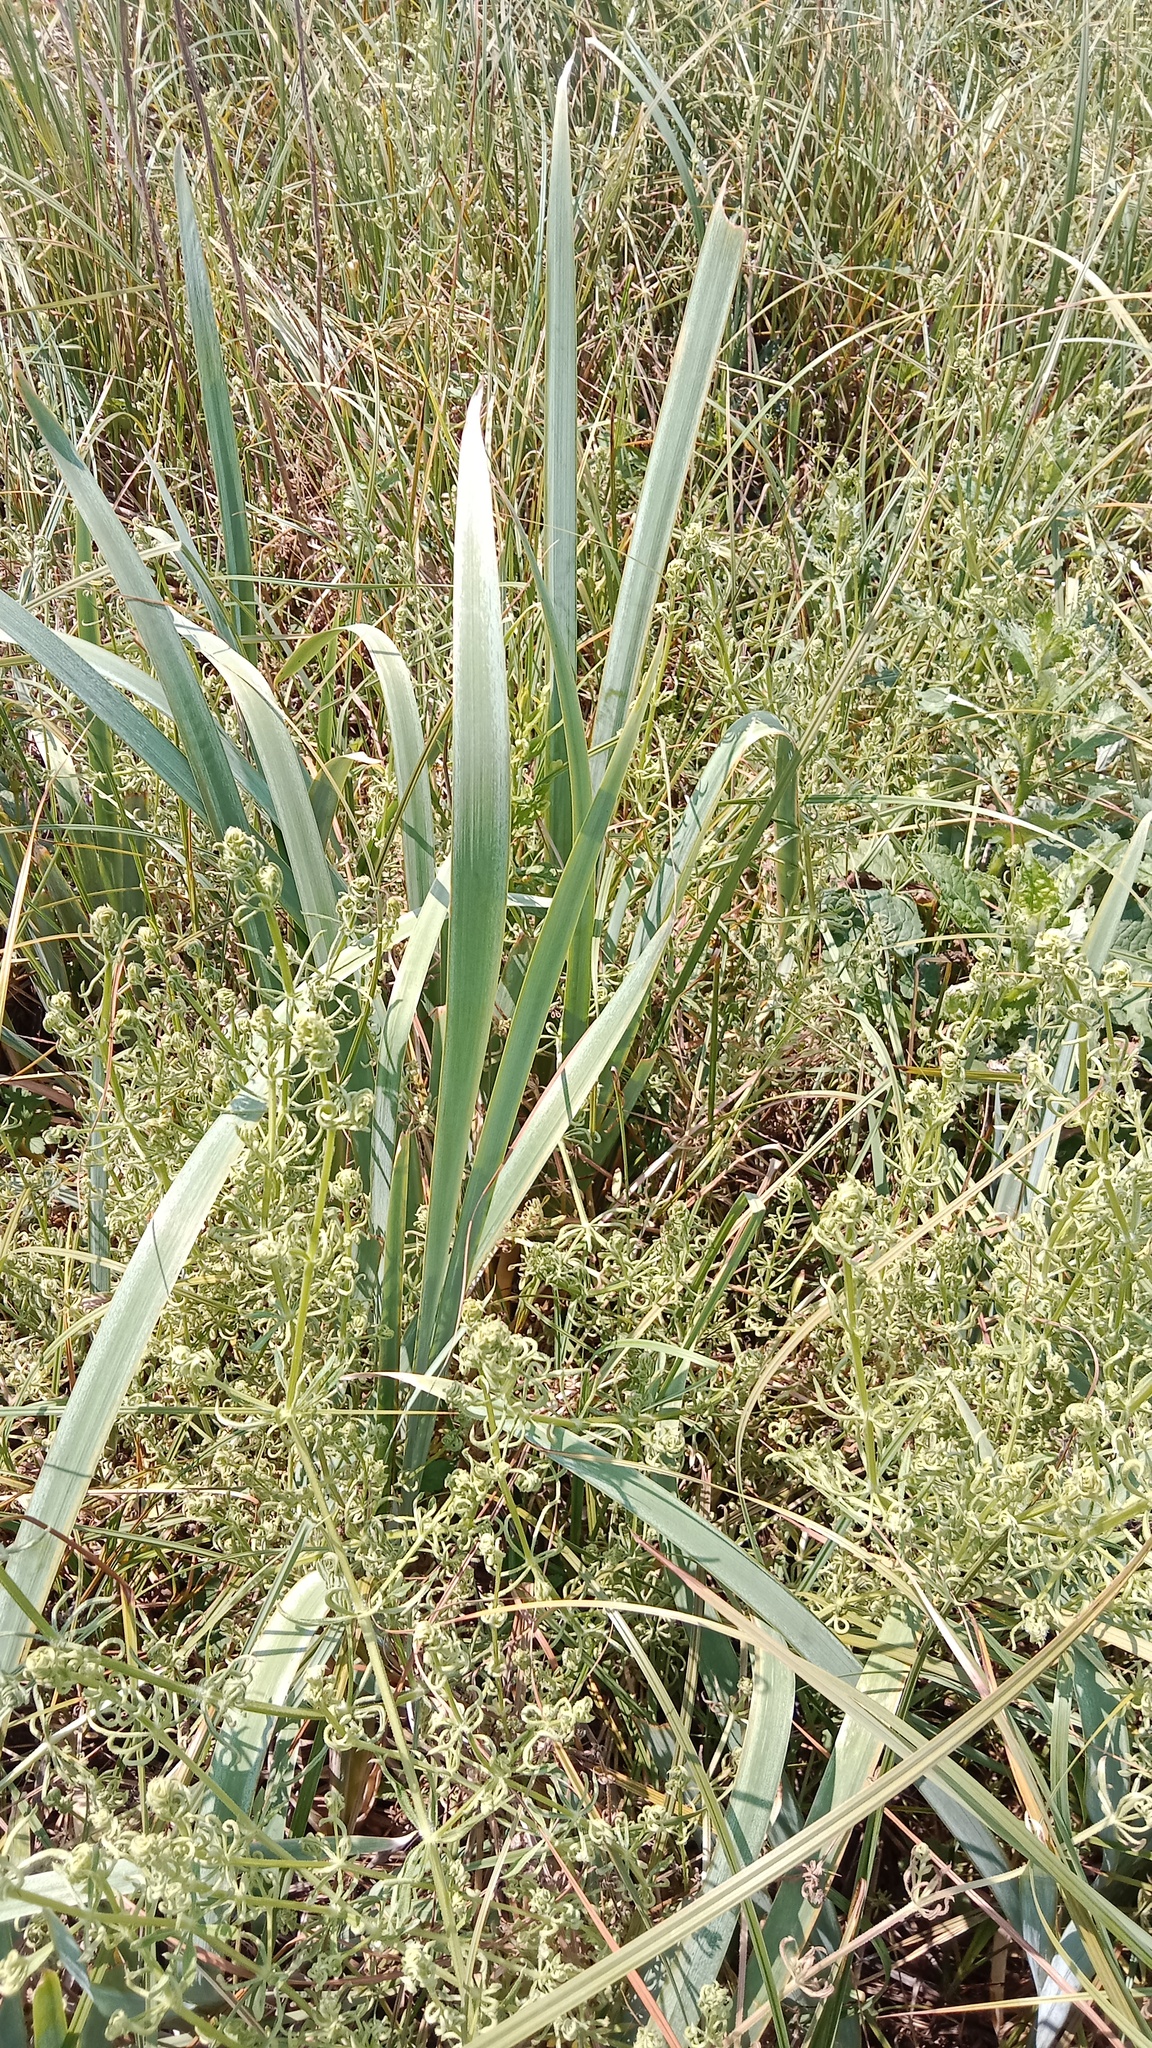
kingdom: Plantae
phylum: Tracheophyta
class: Liliopsida
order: Asparagales
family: Iridaceae
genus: Iris
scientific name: Iris pseudacorus
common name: Yellow flag
